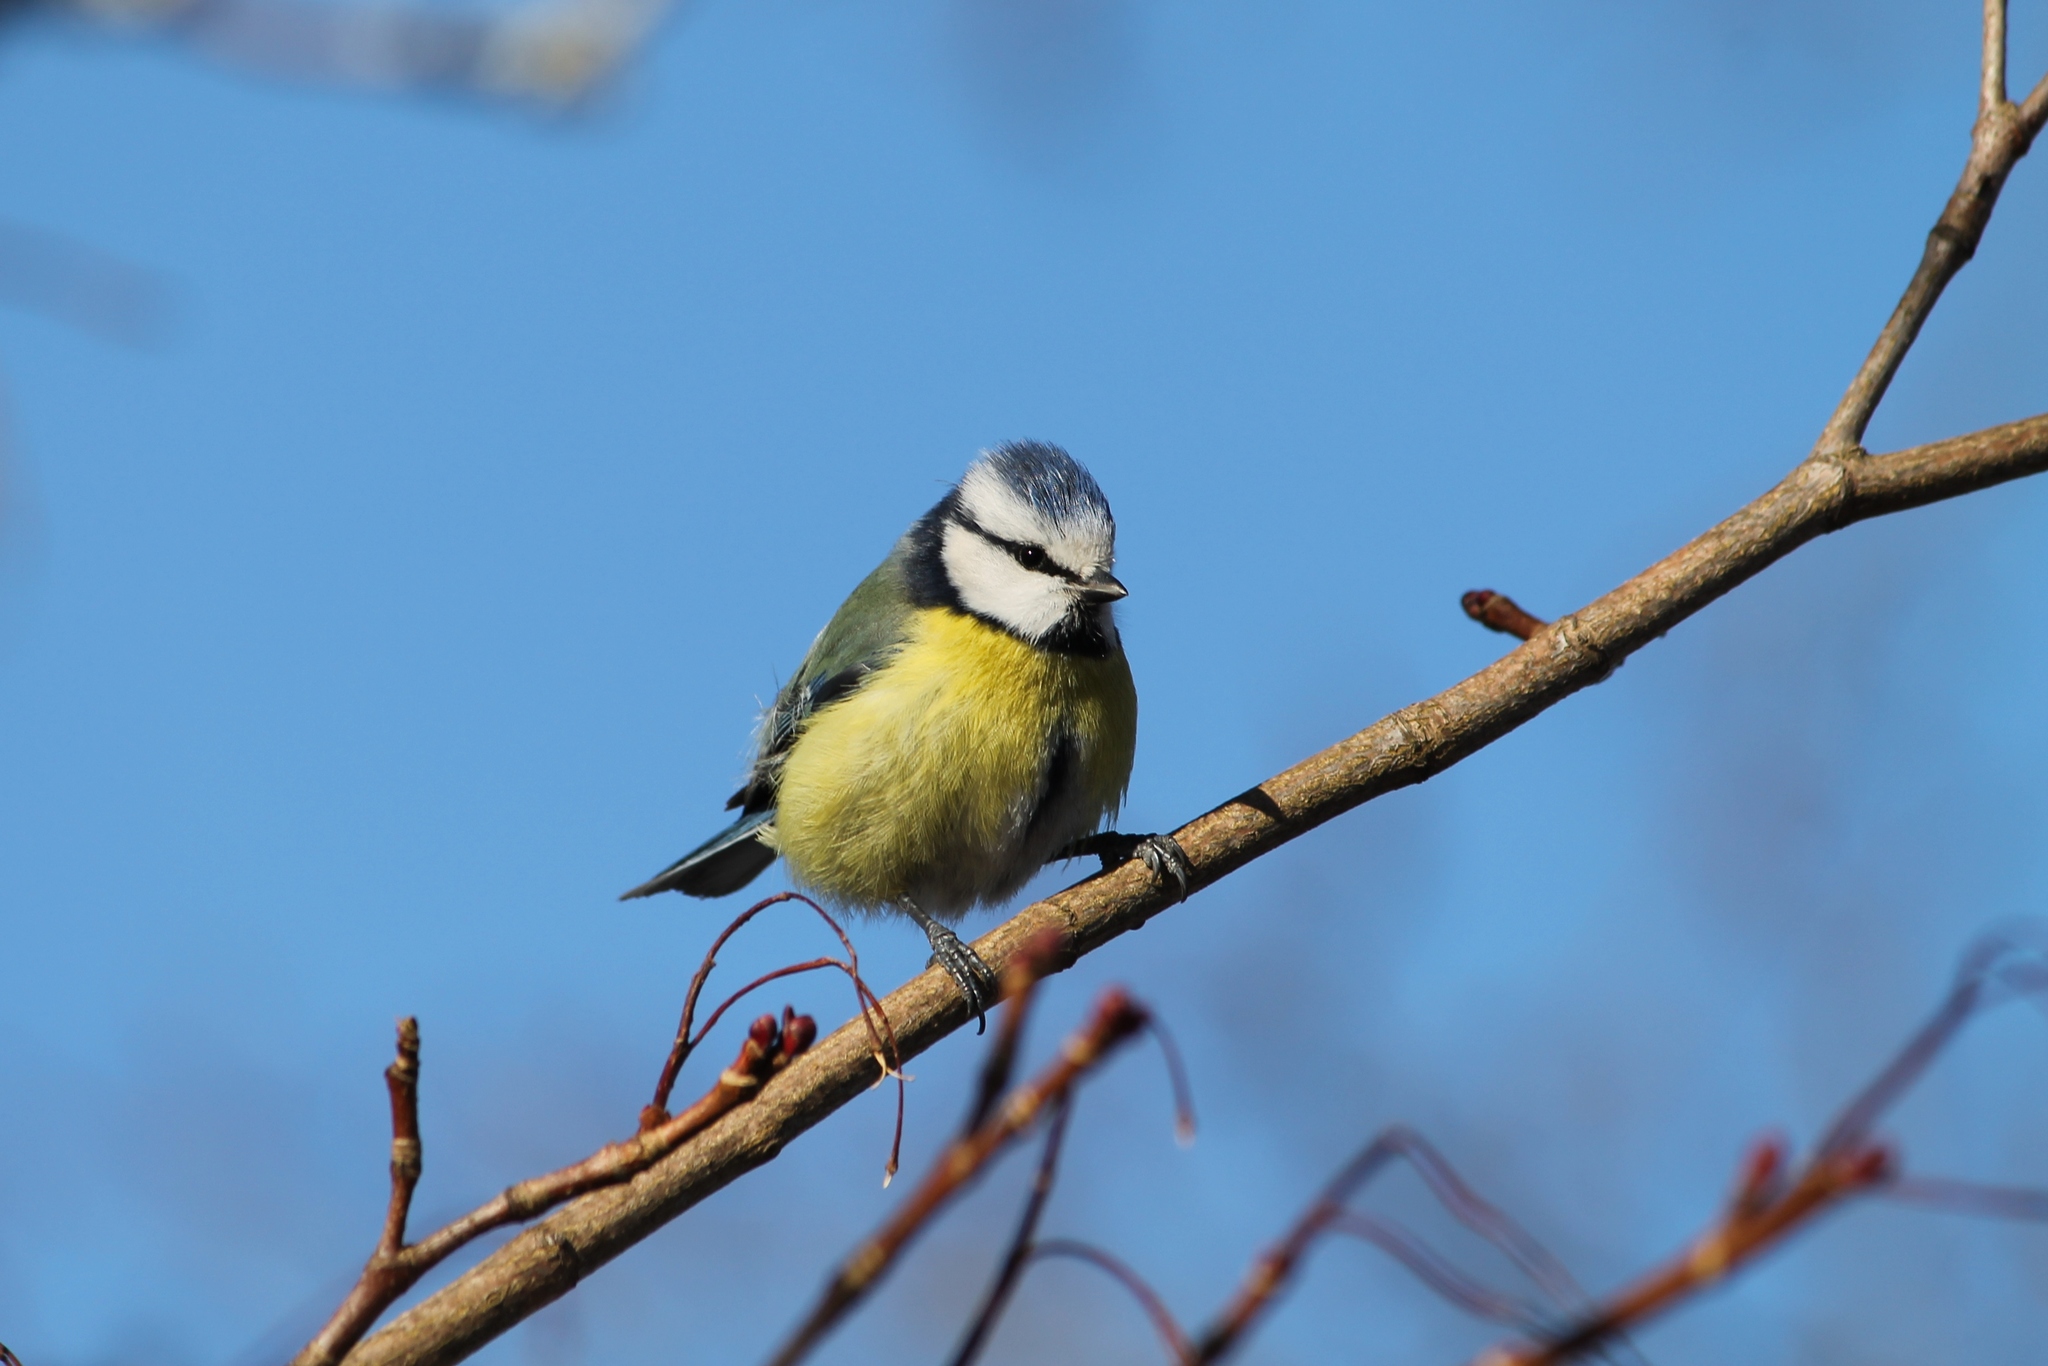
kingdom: Animalia
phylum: Chordata
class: Aves
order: Passeriformes
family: Paridae
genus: Cyanistes
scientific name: Cyanistes caeruleus
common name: Eurasian blue tit
